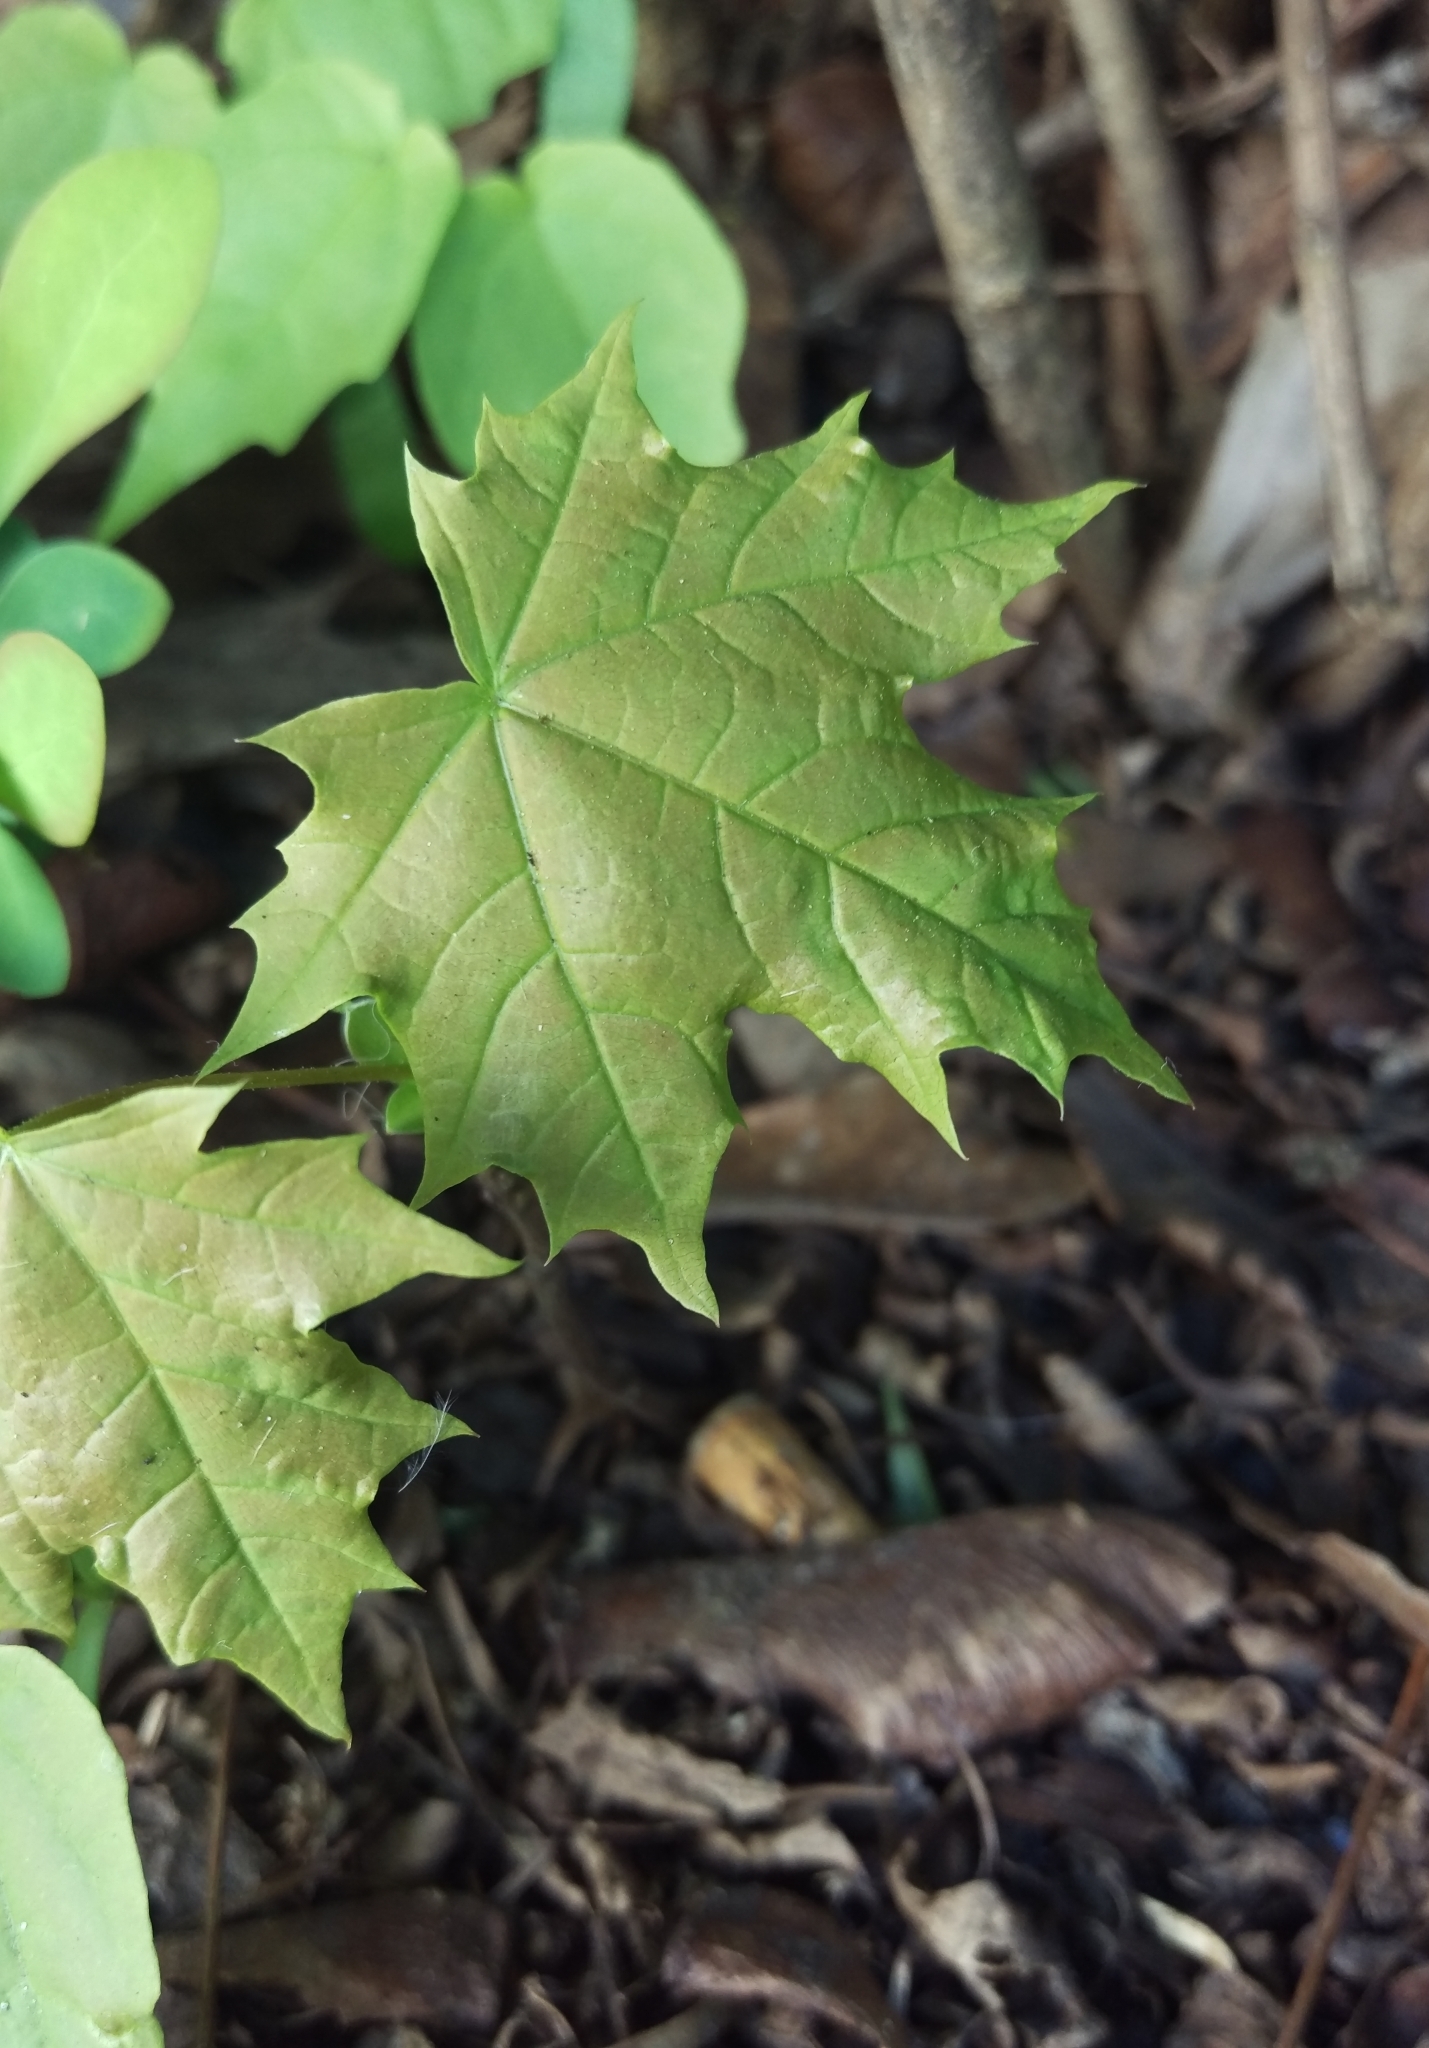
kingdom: Plantae
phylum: Tracheophyta
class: Magnoliopsida
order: Sapindales
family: Sapindaceae
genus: Acer
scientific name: Acer platanoides
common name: Norway maple
